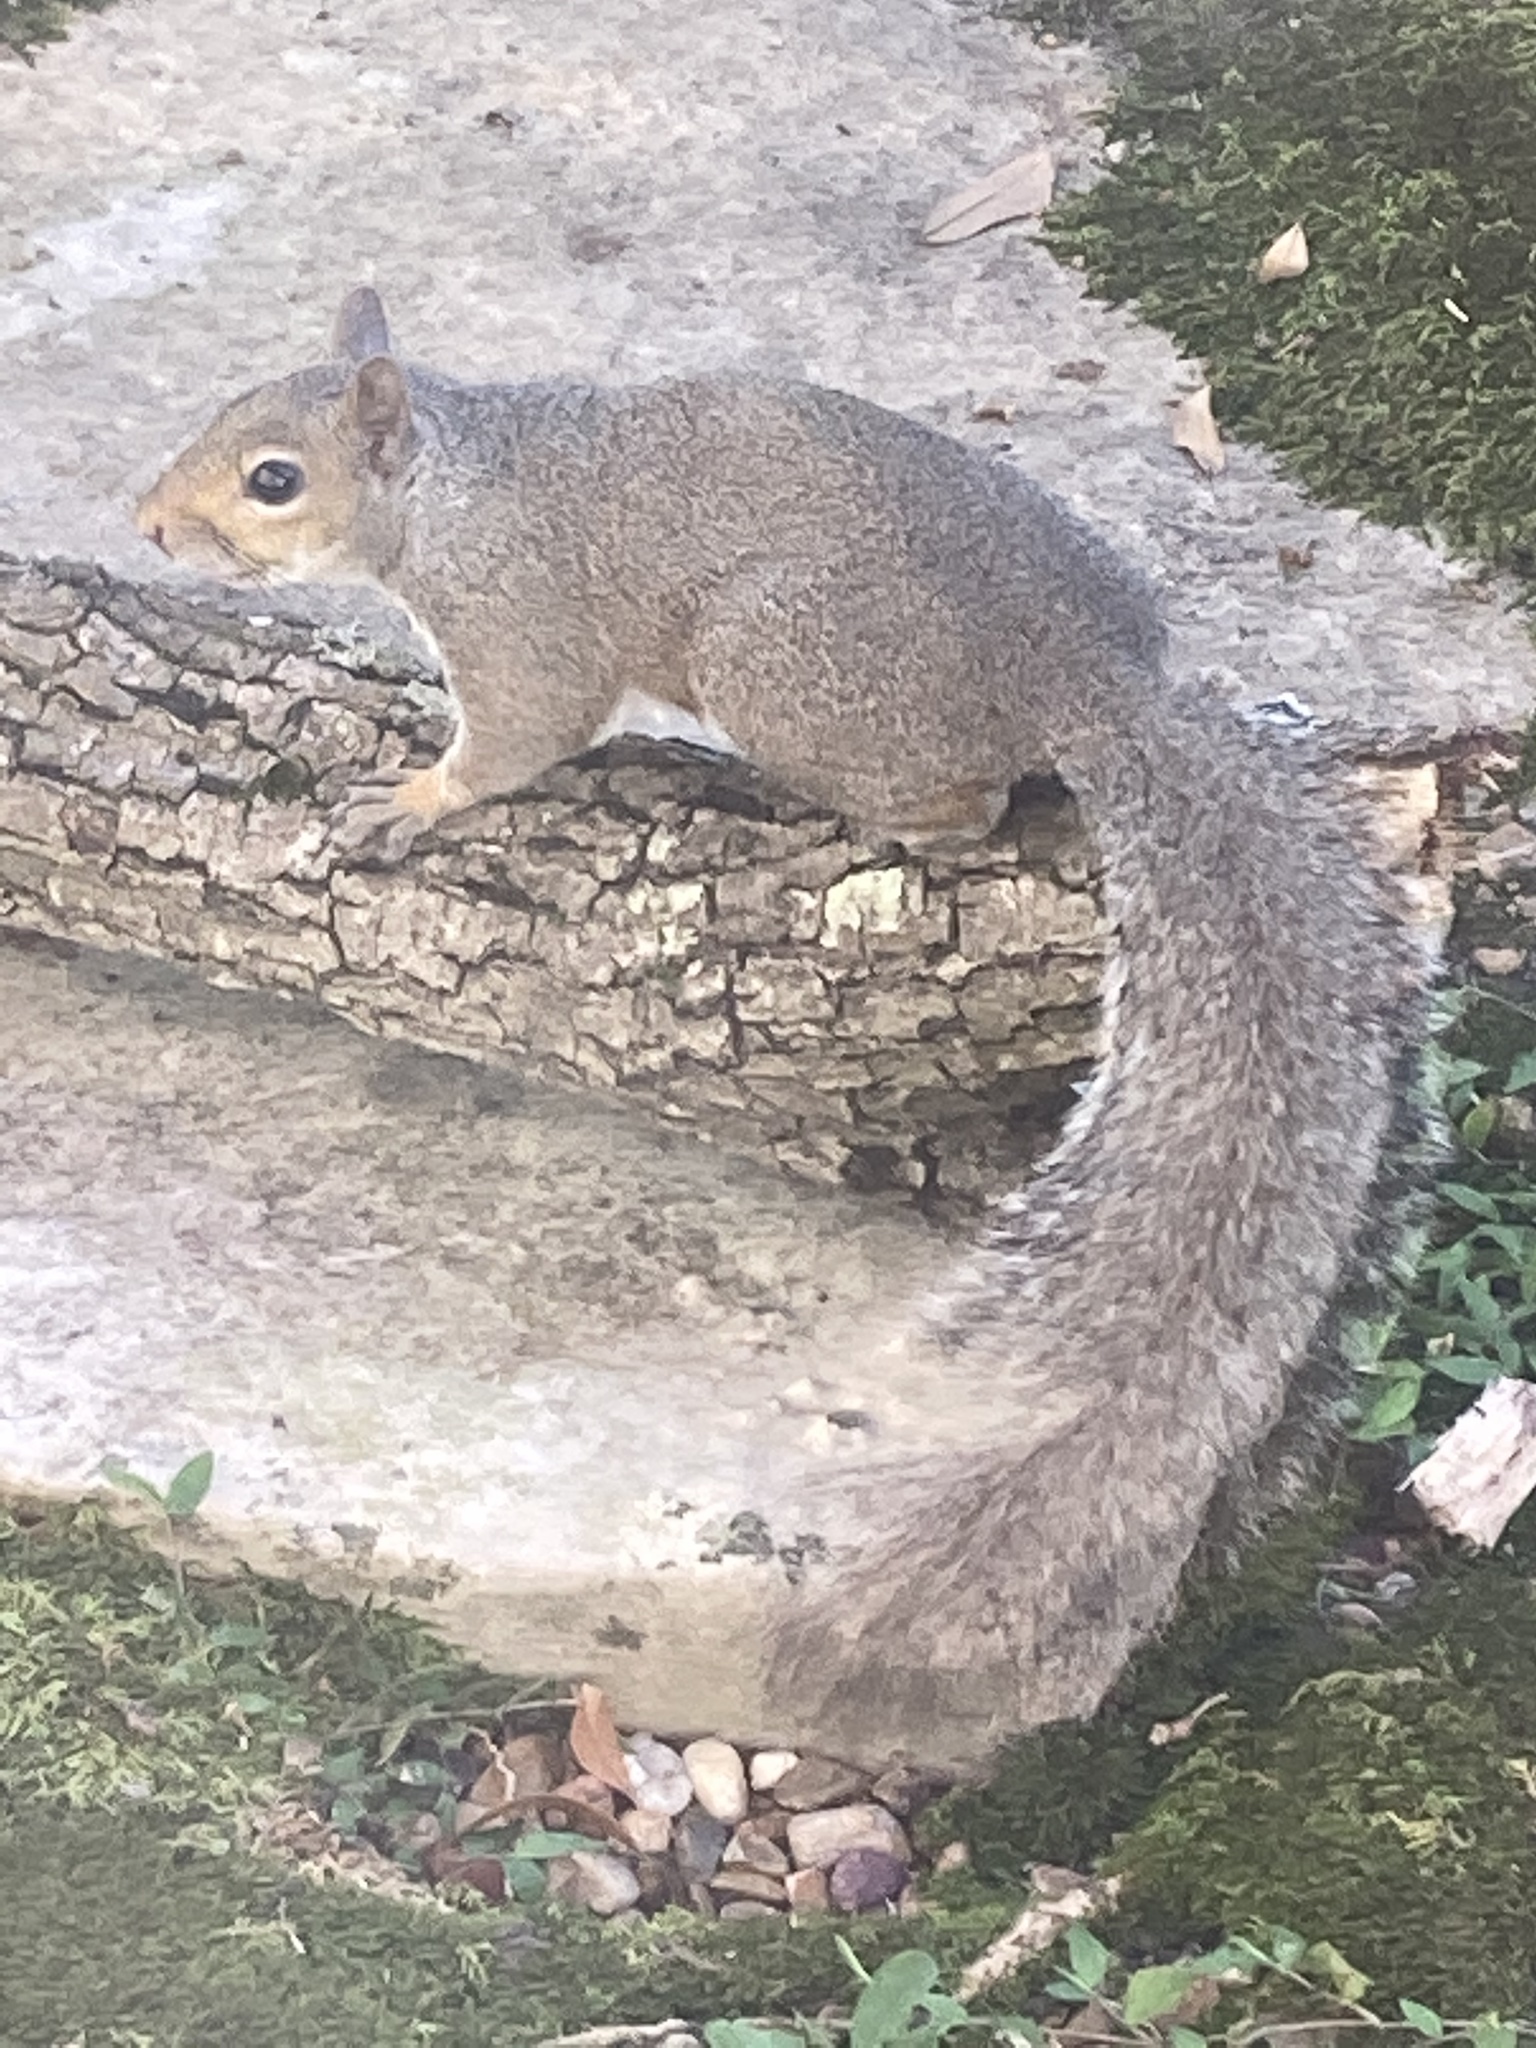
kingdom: Animalia
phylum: Chordata
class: Mammalia
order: Rodentia
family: Sciuridae
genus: Sciurus
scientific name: Sciurus carolinensis
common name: Eastern gray squirrel
